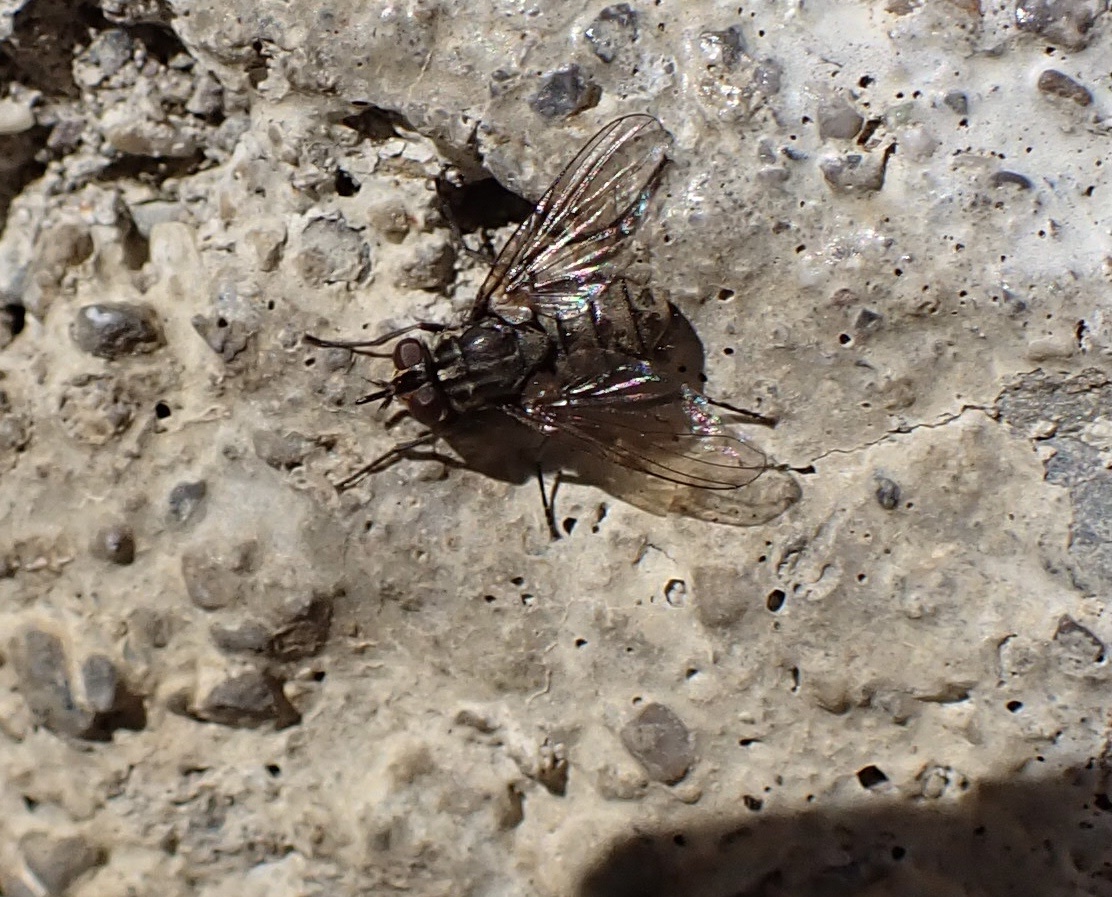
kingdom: Animalia
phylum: Arthropoda
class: Insecta
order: Diptera
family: Muscidae
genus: Stomoxys
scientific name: Stomoxys calcitrans
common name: Stable fly
